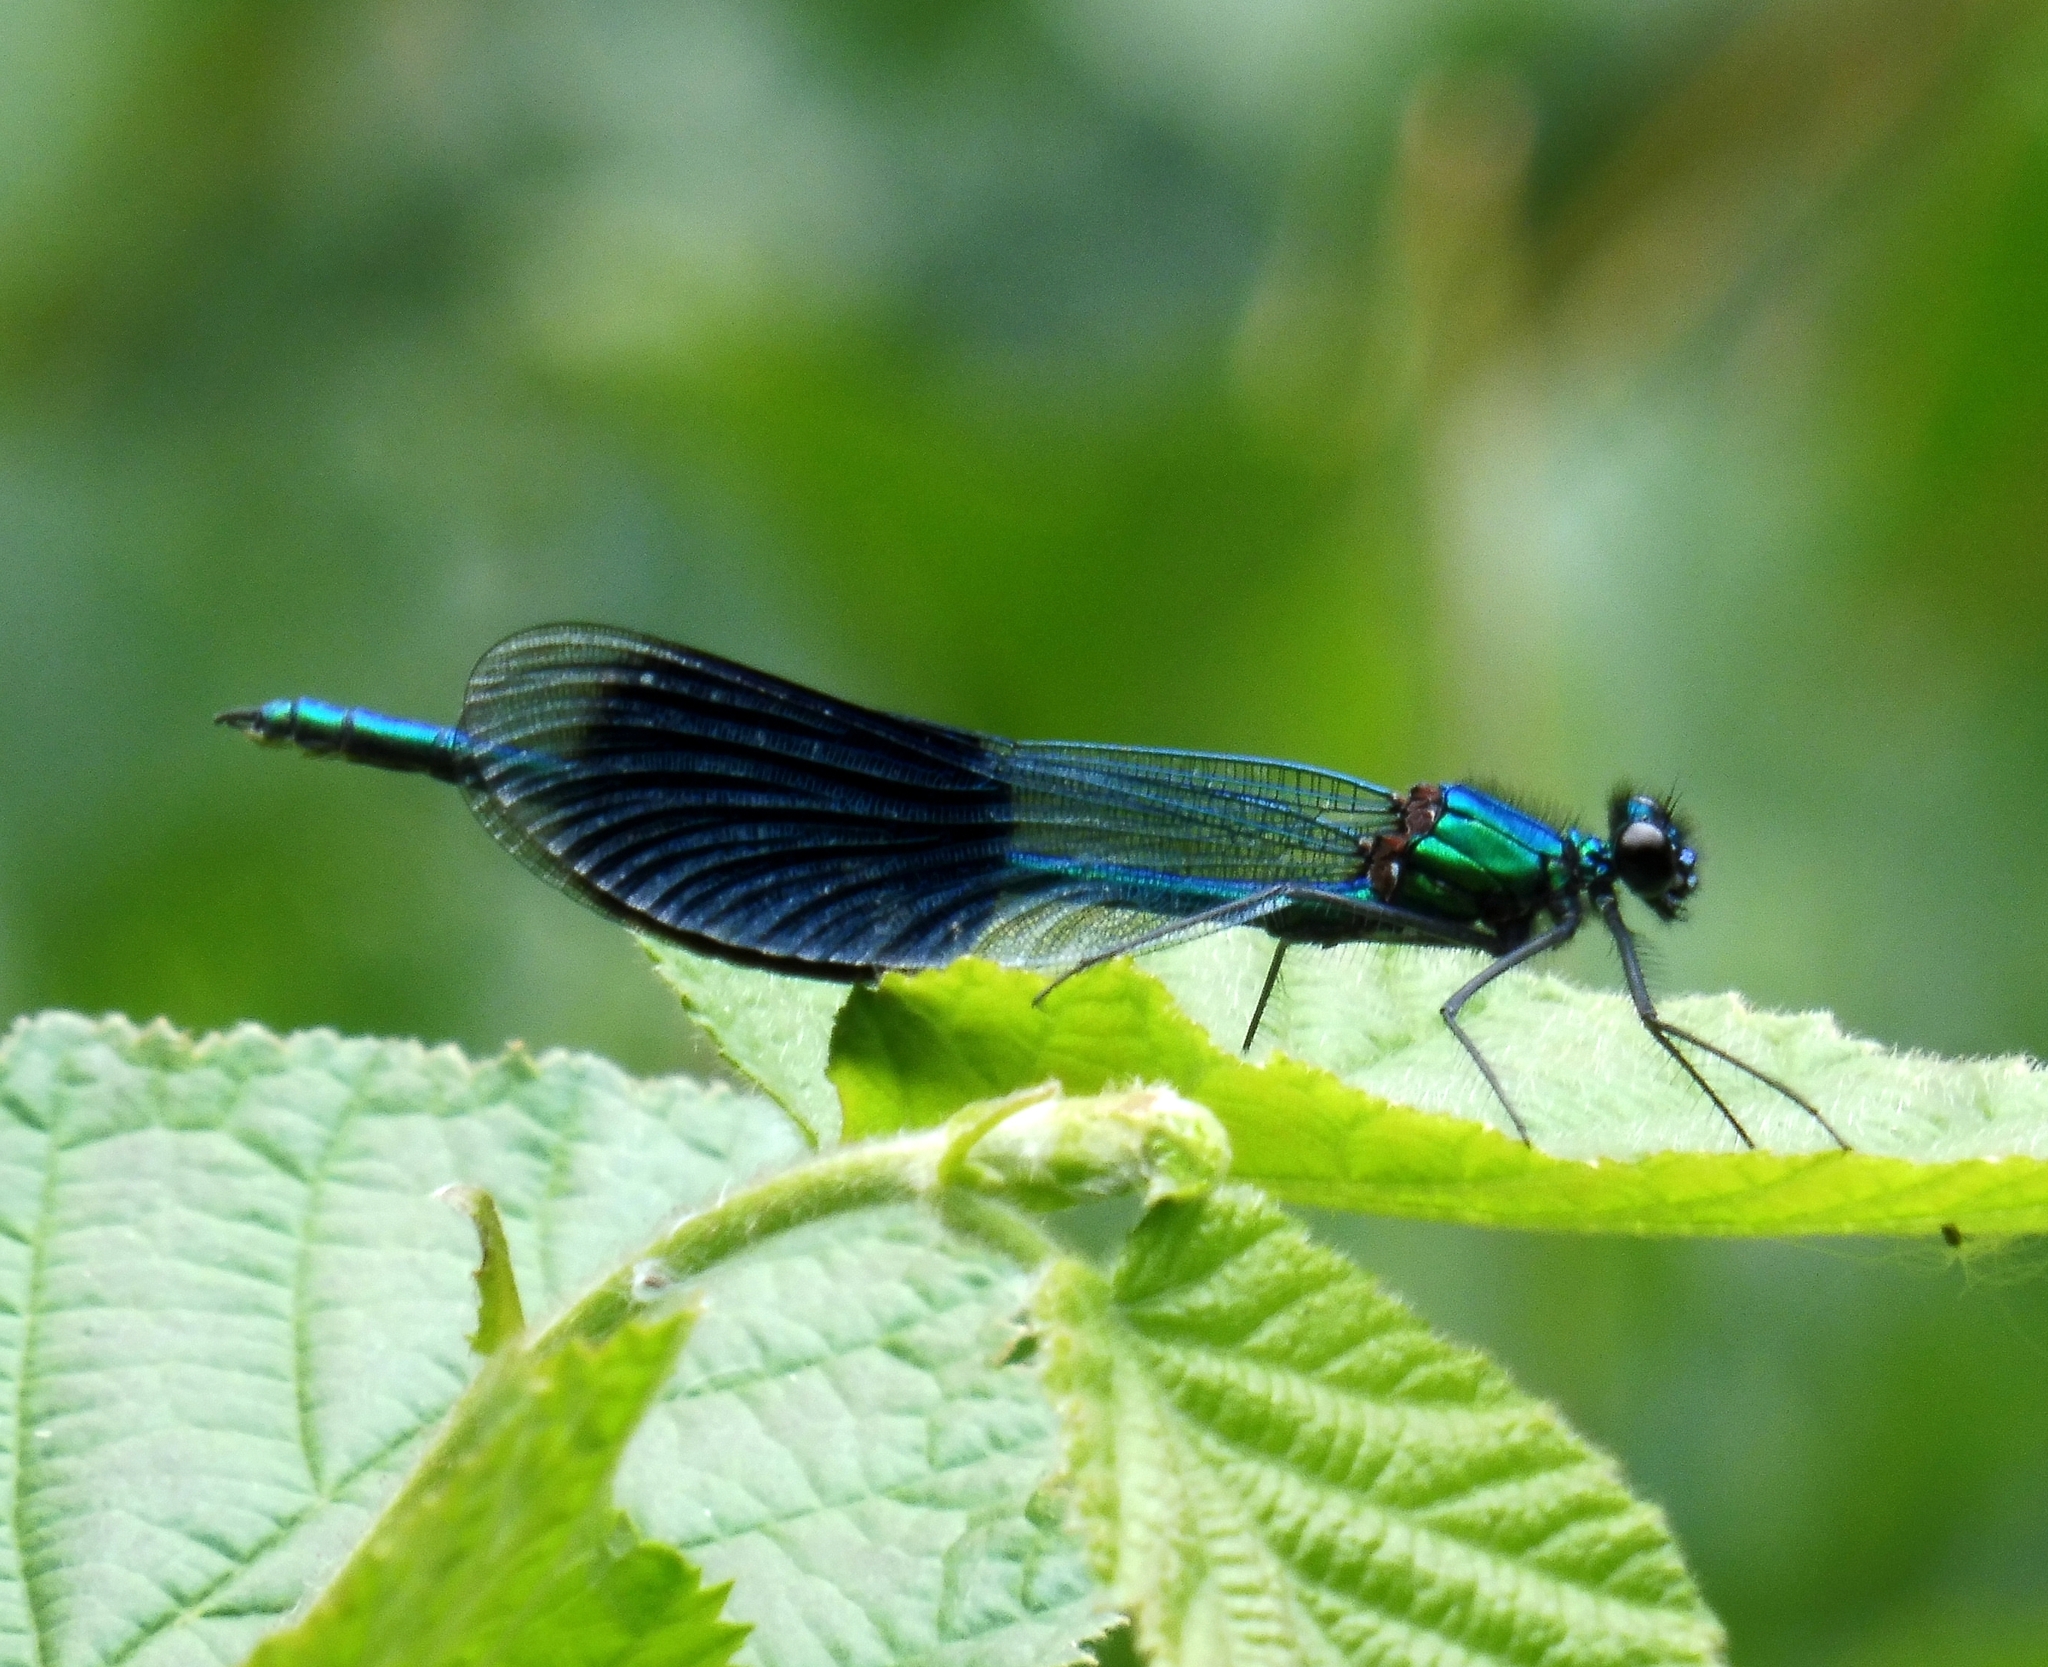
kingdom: Animalia
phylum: Arthropoda
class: Insecta
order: Odonata
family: Calopterygidae
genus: Calopteryx
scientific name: Calopteryx splendens
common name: Banded demoiselle
